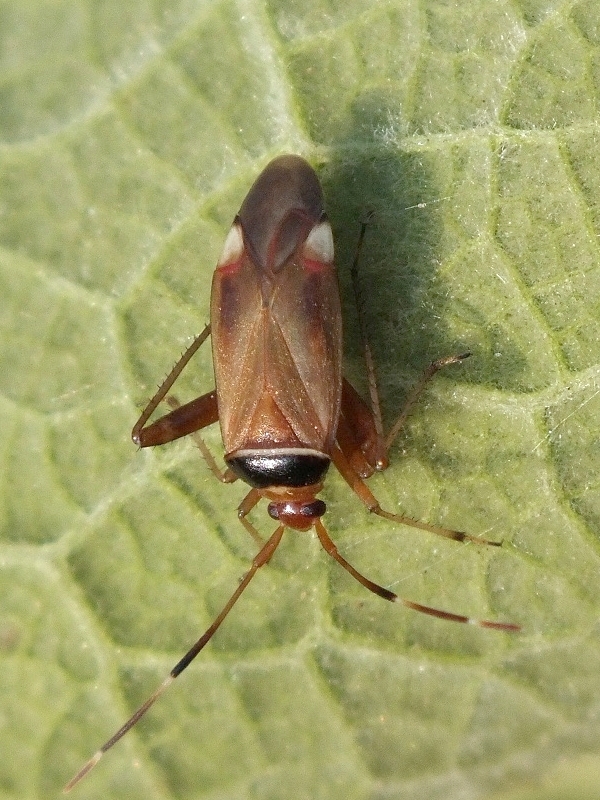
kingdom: Animalia
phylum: Arthropoda
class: Insecta
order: Hemiptera
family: Miridae
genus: Adelphocoris
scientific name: Adelphocoris vandalicus
